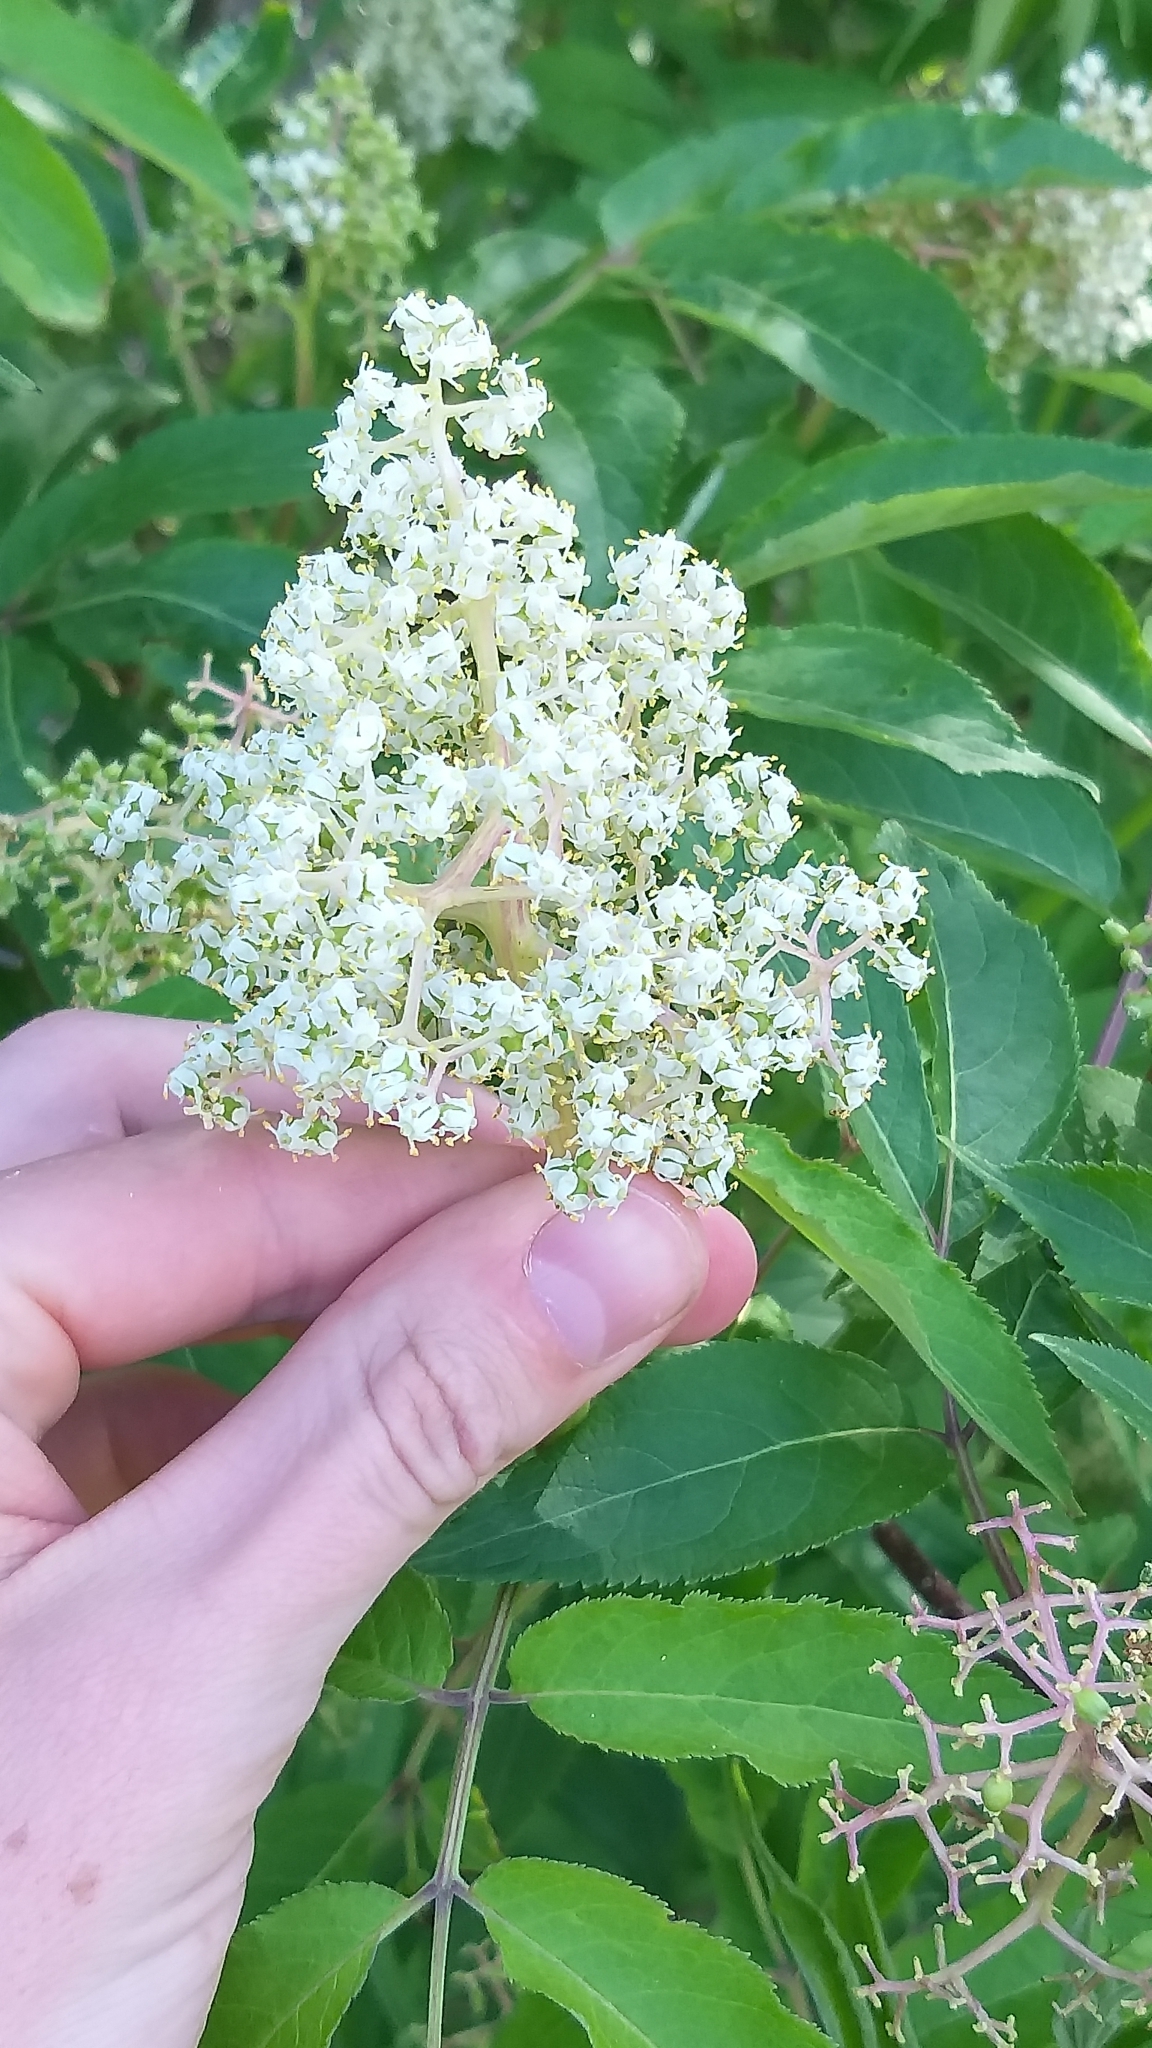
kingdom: Plantae
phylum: Tracheophyta
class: Magnoliopsida
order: Dipsacales
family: Viburnaceae
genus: Sambucus
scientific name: Sambucus racemosa
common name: Red-berried elder
